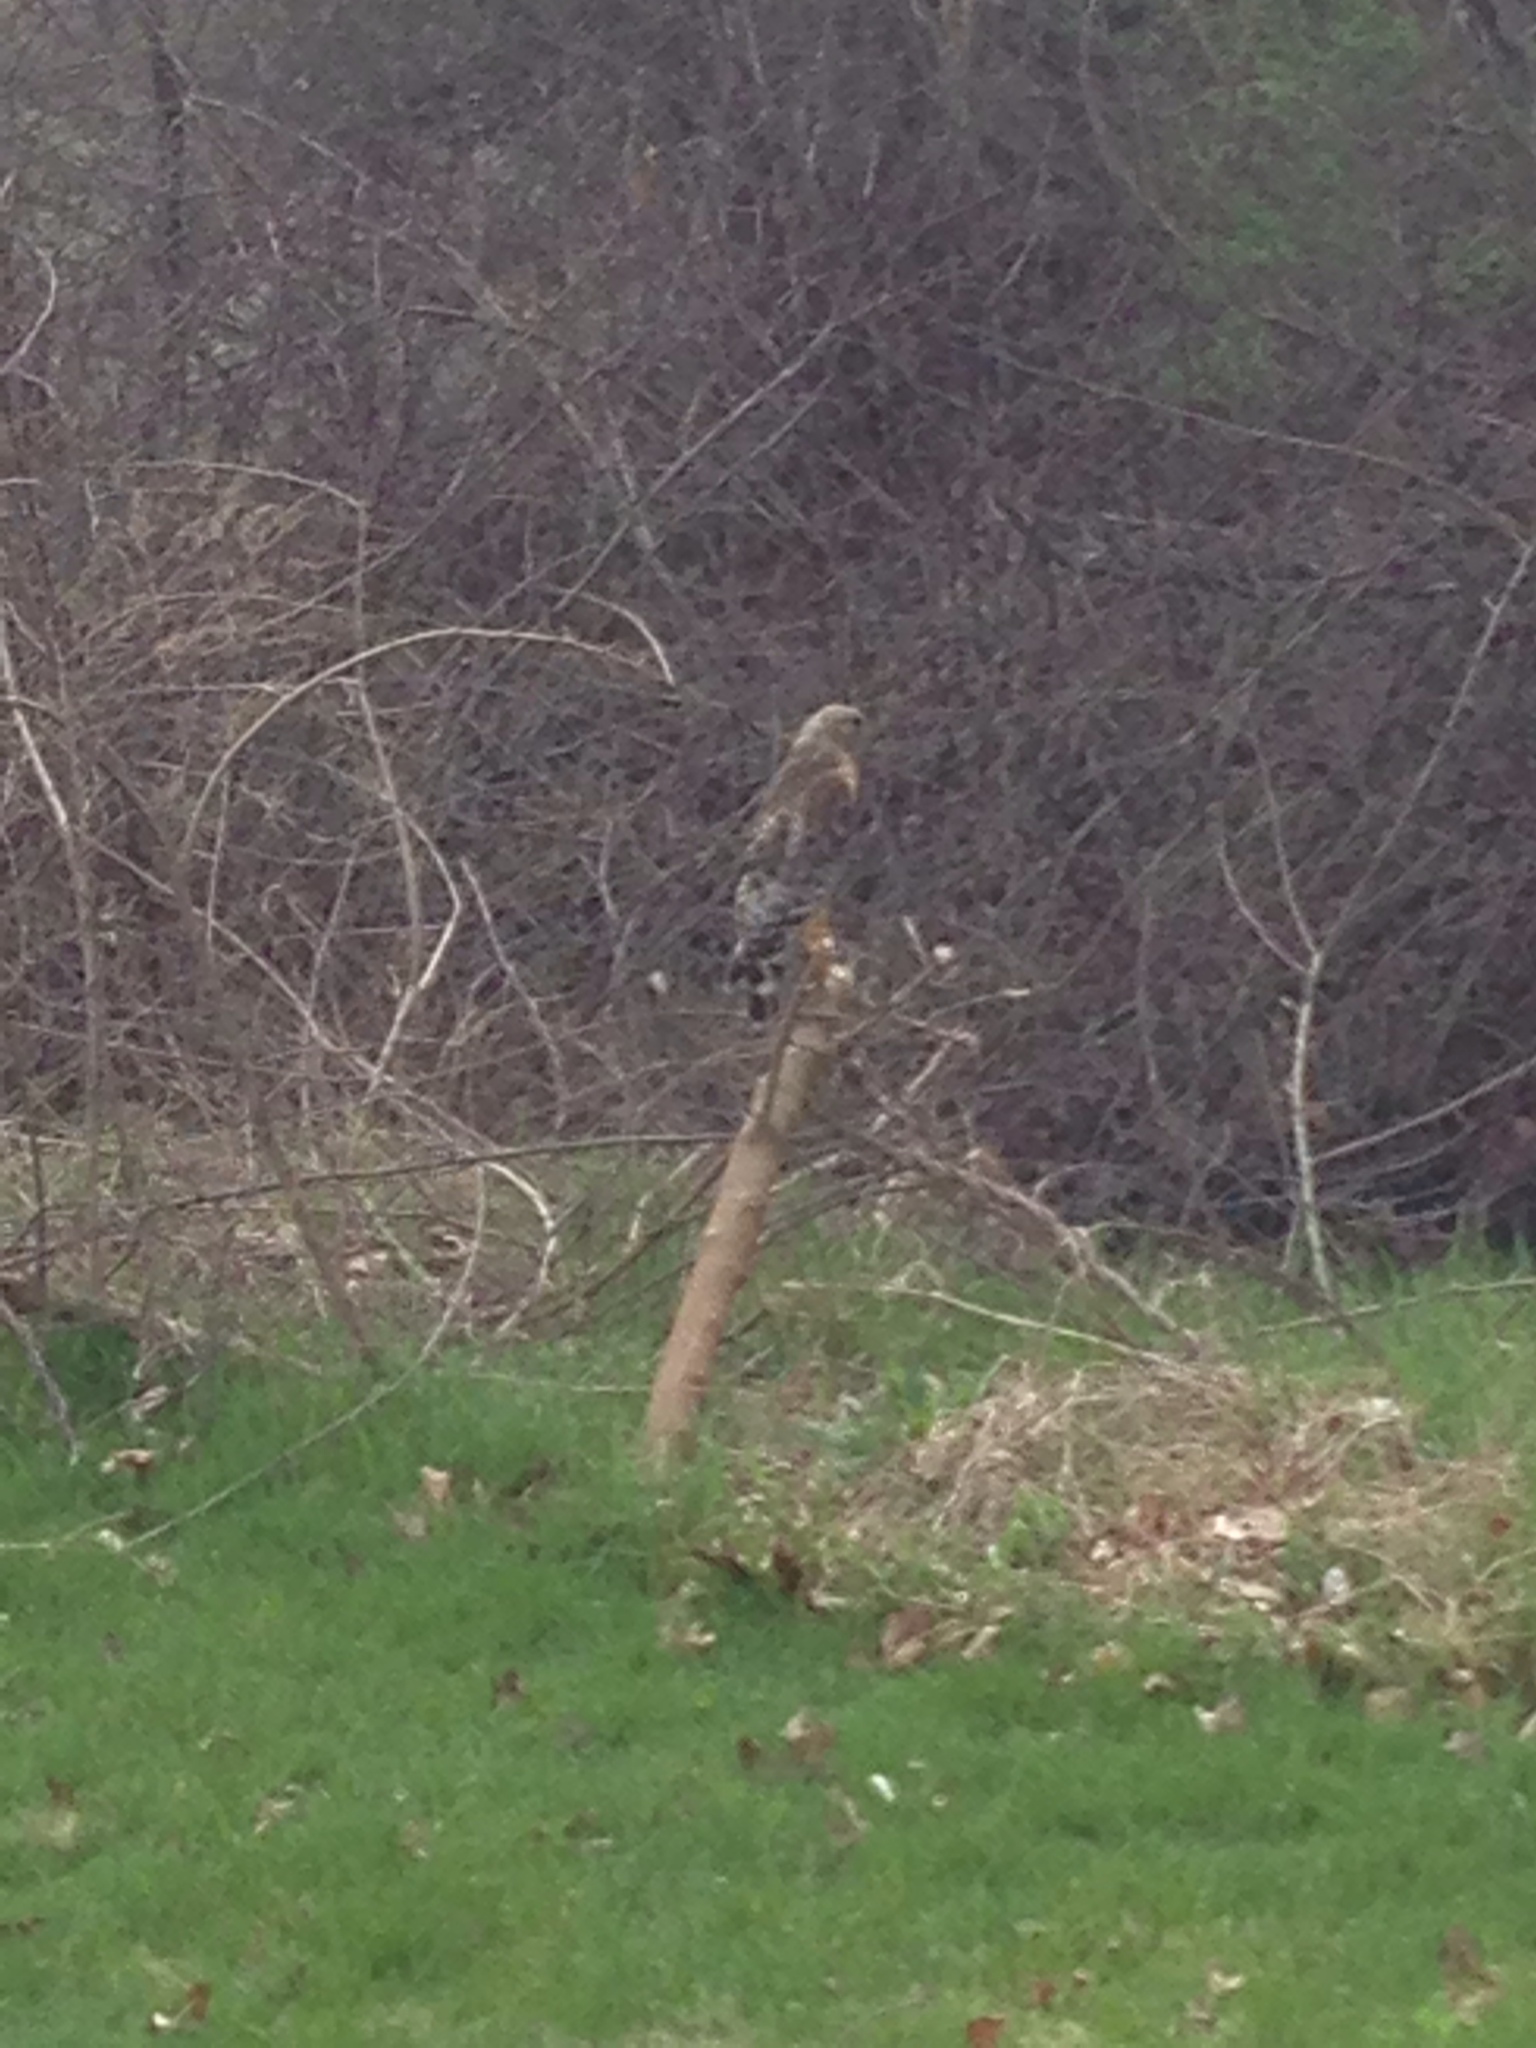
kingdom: Animalia
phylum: Chordata
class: Aves
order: Accipitriformes
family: Accipitridae
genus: Buteo
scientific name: Buteo lineatus
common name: Red-shouldered hawk
